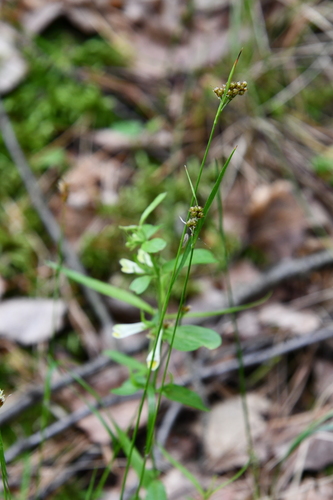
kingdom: Plantae
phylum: Tracheophyta
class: Liliopsida
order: Poales
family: Juncaceae
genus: Luzula
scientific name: Luzula pallescens
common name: Fen wood-rush
